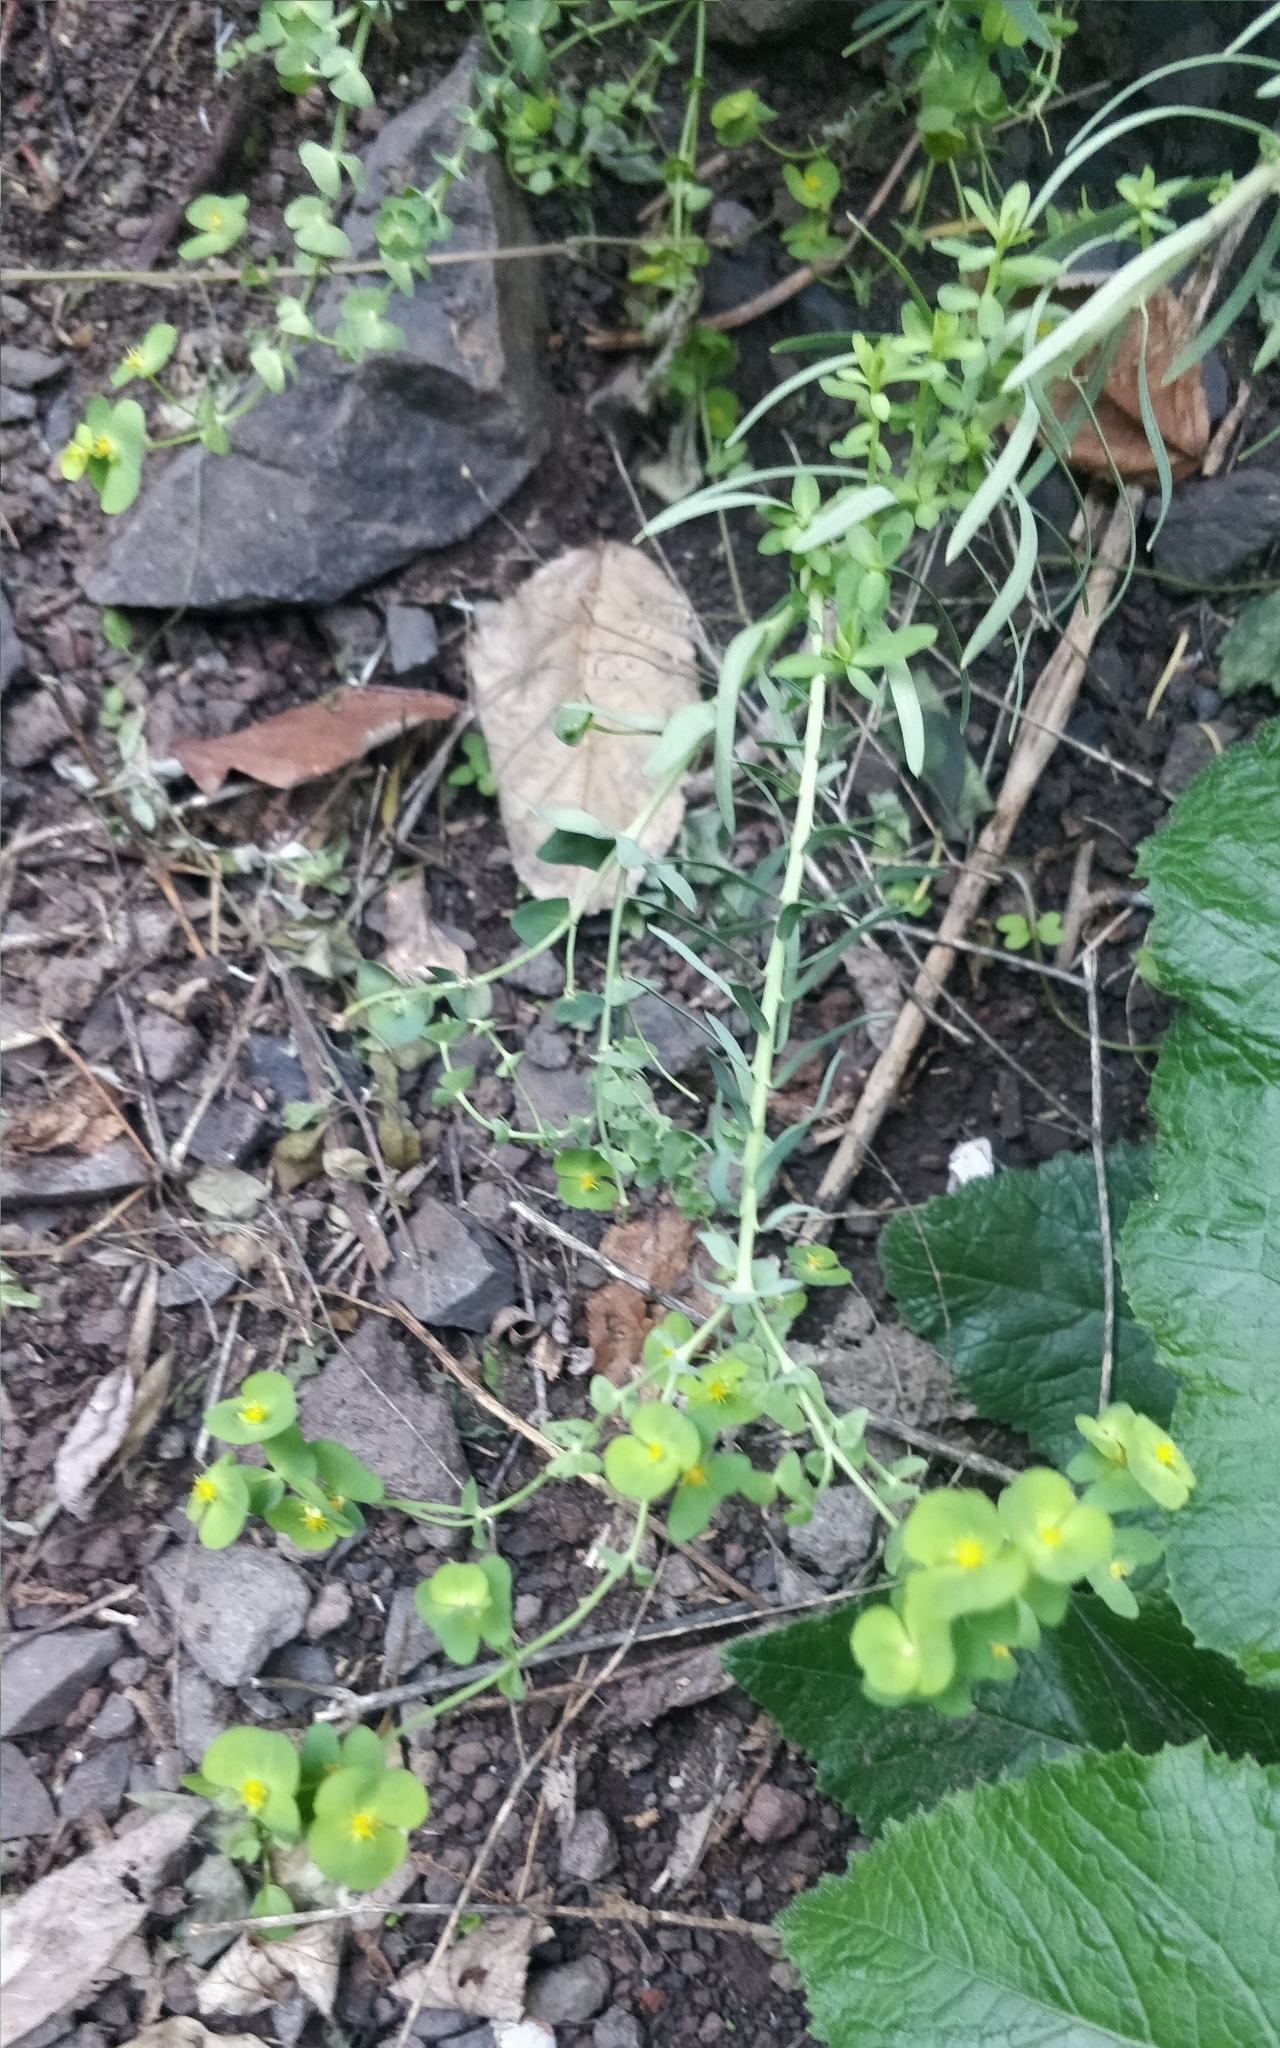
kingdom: Plantae
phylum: Tracheophyta
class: Magnoliopsida
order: Malpighiales
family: Euphorbiaceae
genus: Euphorbia
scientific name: Euphorbia segetalis
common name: Corn spurge
